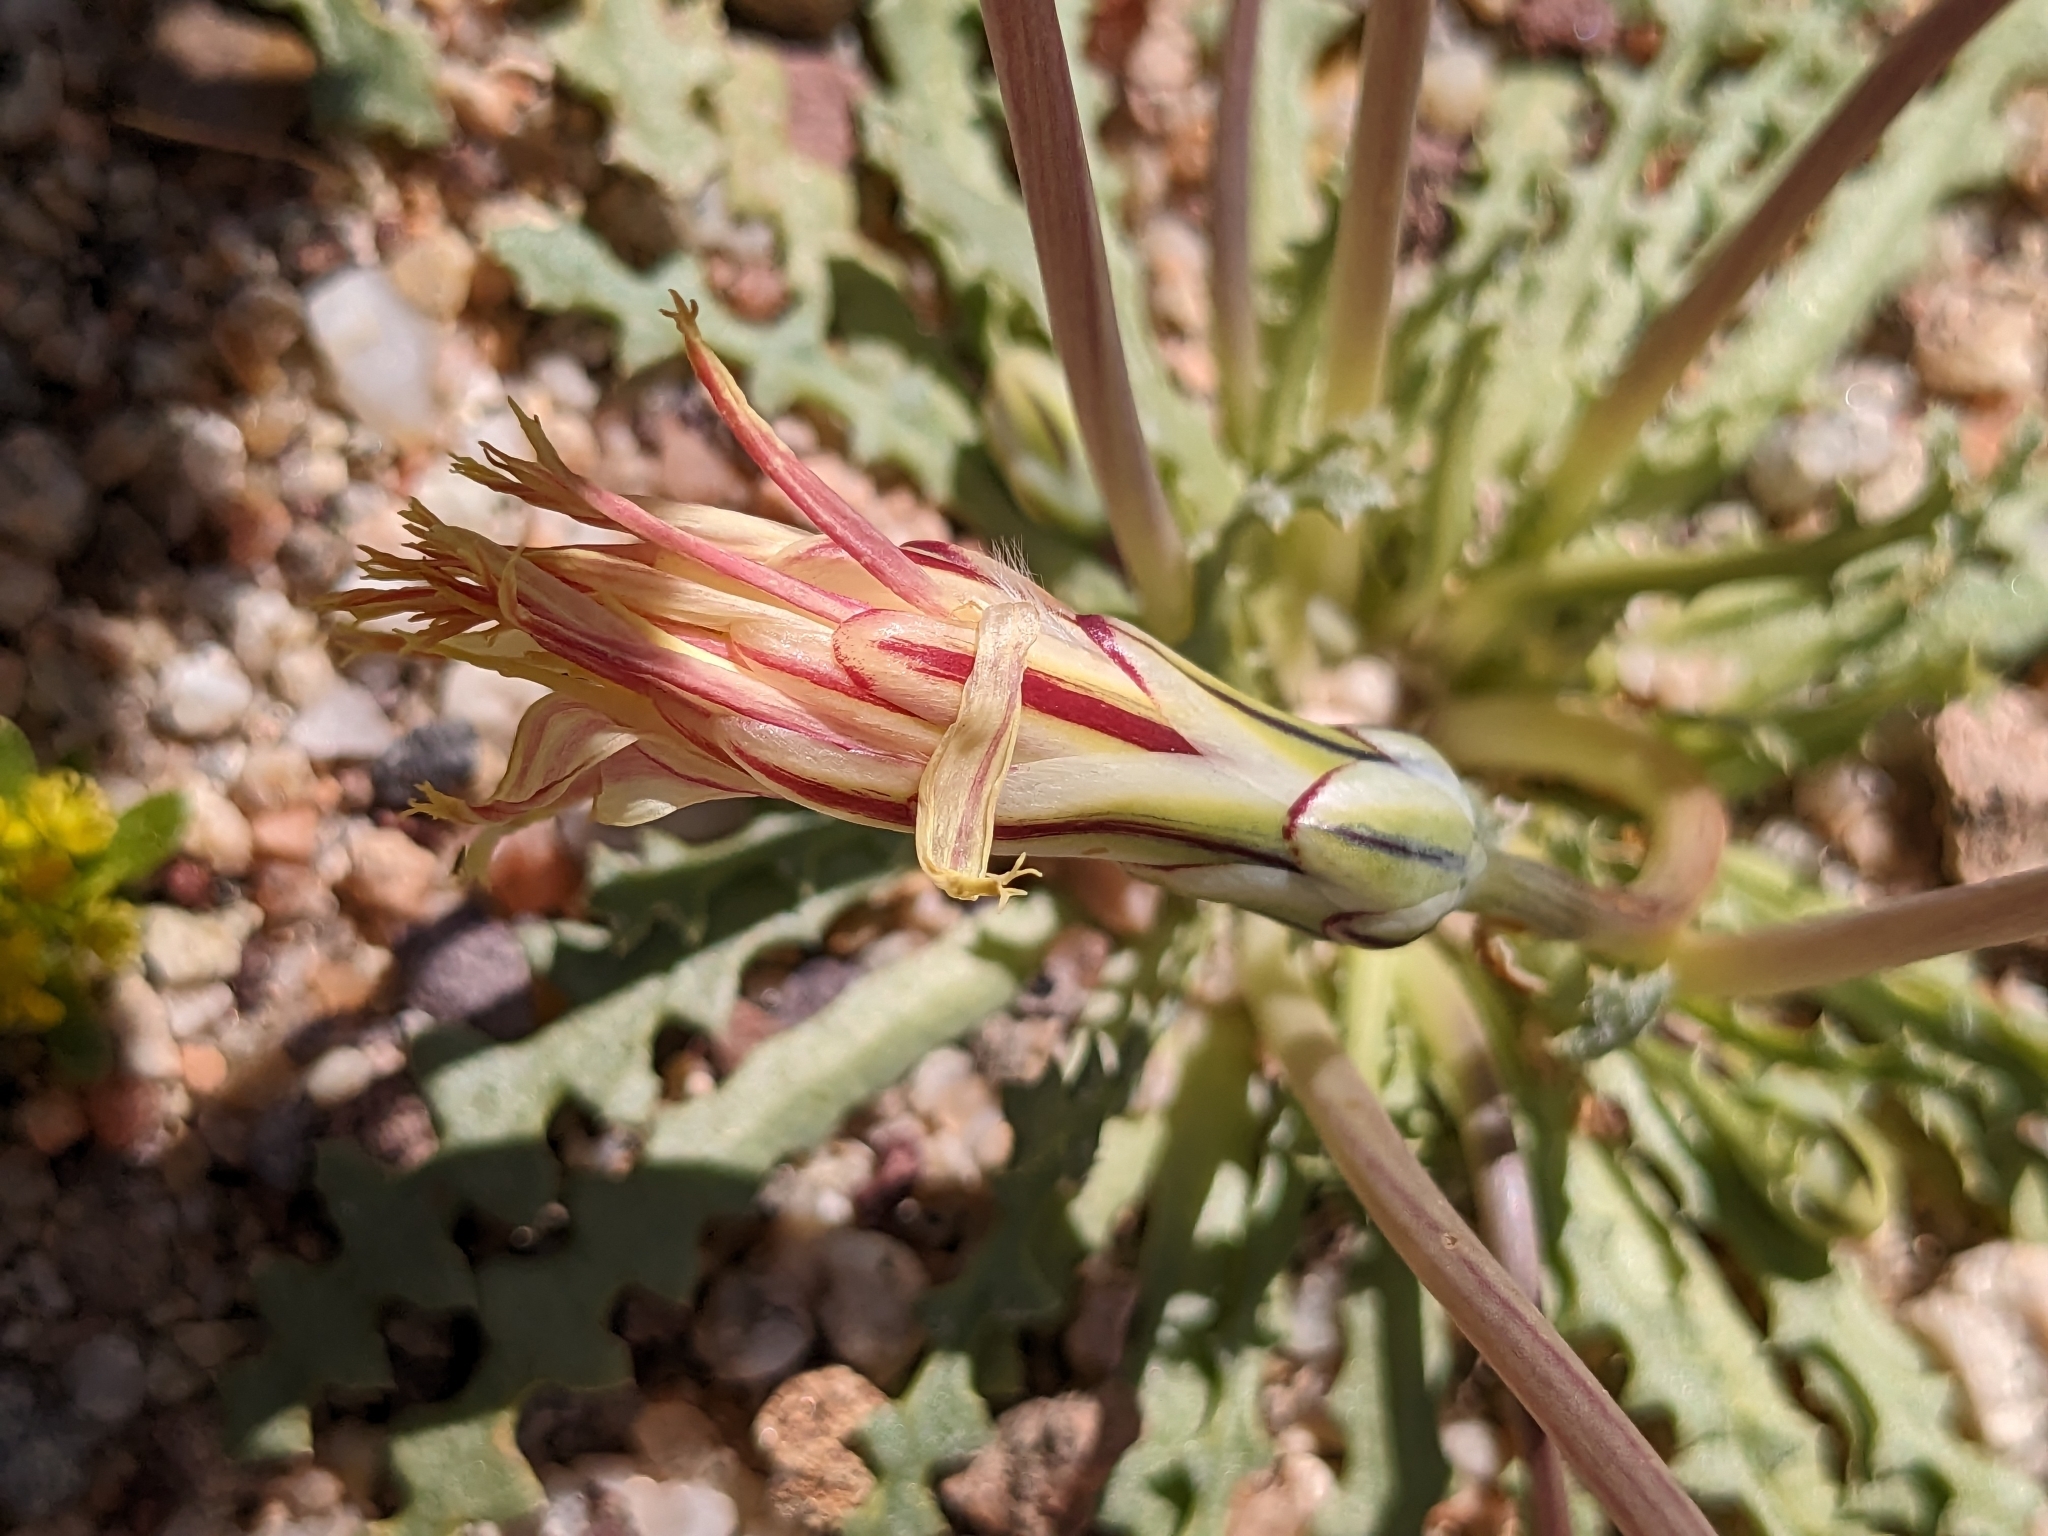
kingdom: Plantae
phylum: Tracheophyta
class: Magnoliopsida
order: Asterales
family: Asteraceae
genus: Anisocoma
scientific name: Anisocoma acaulis
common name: Scalebud
